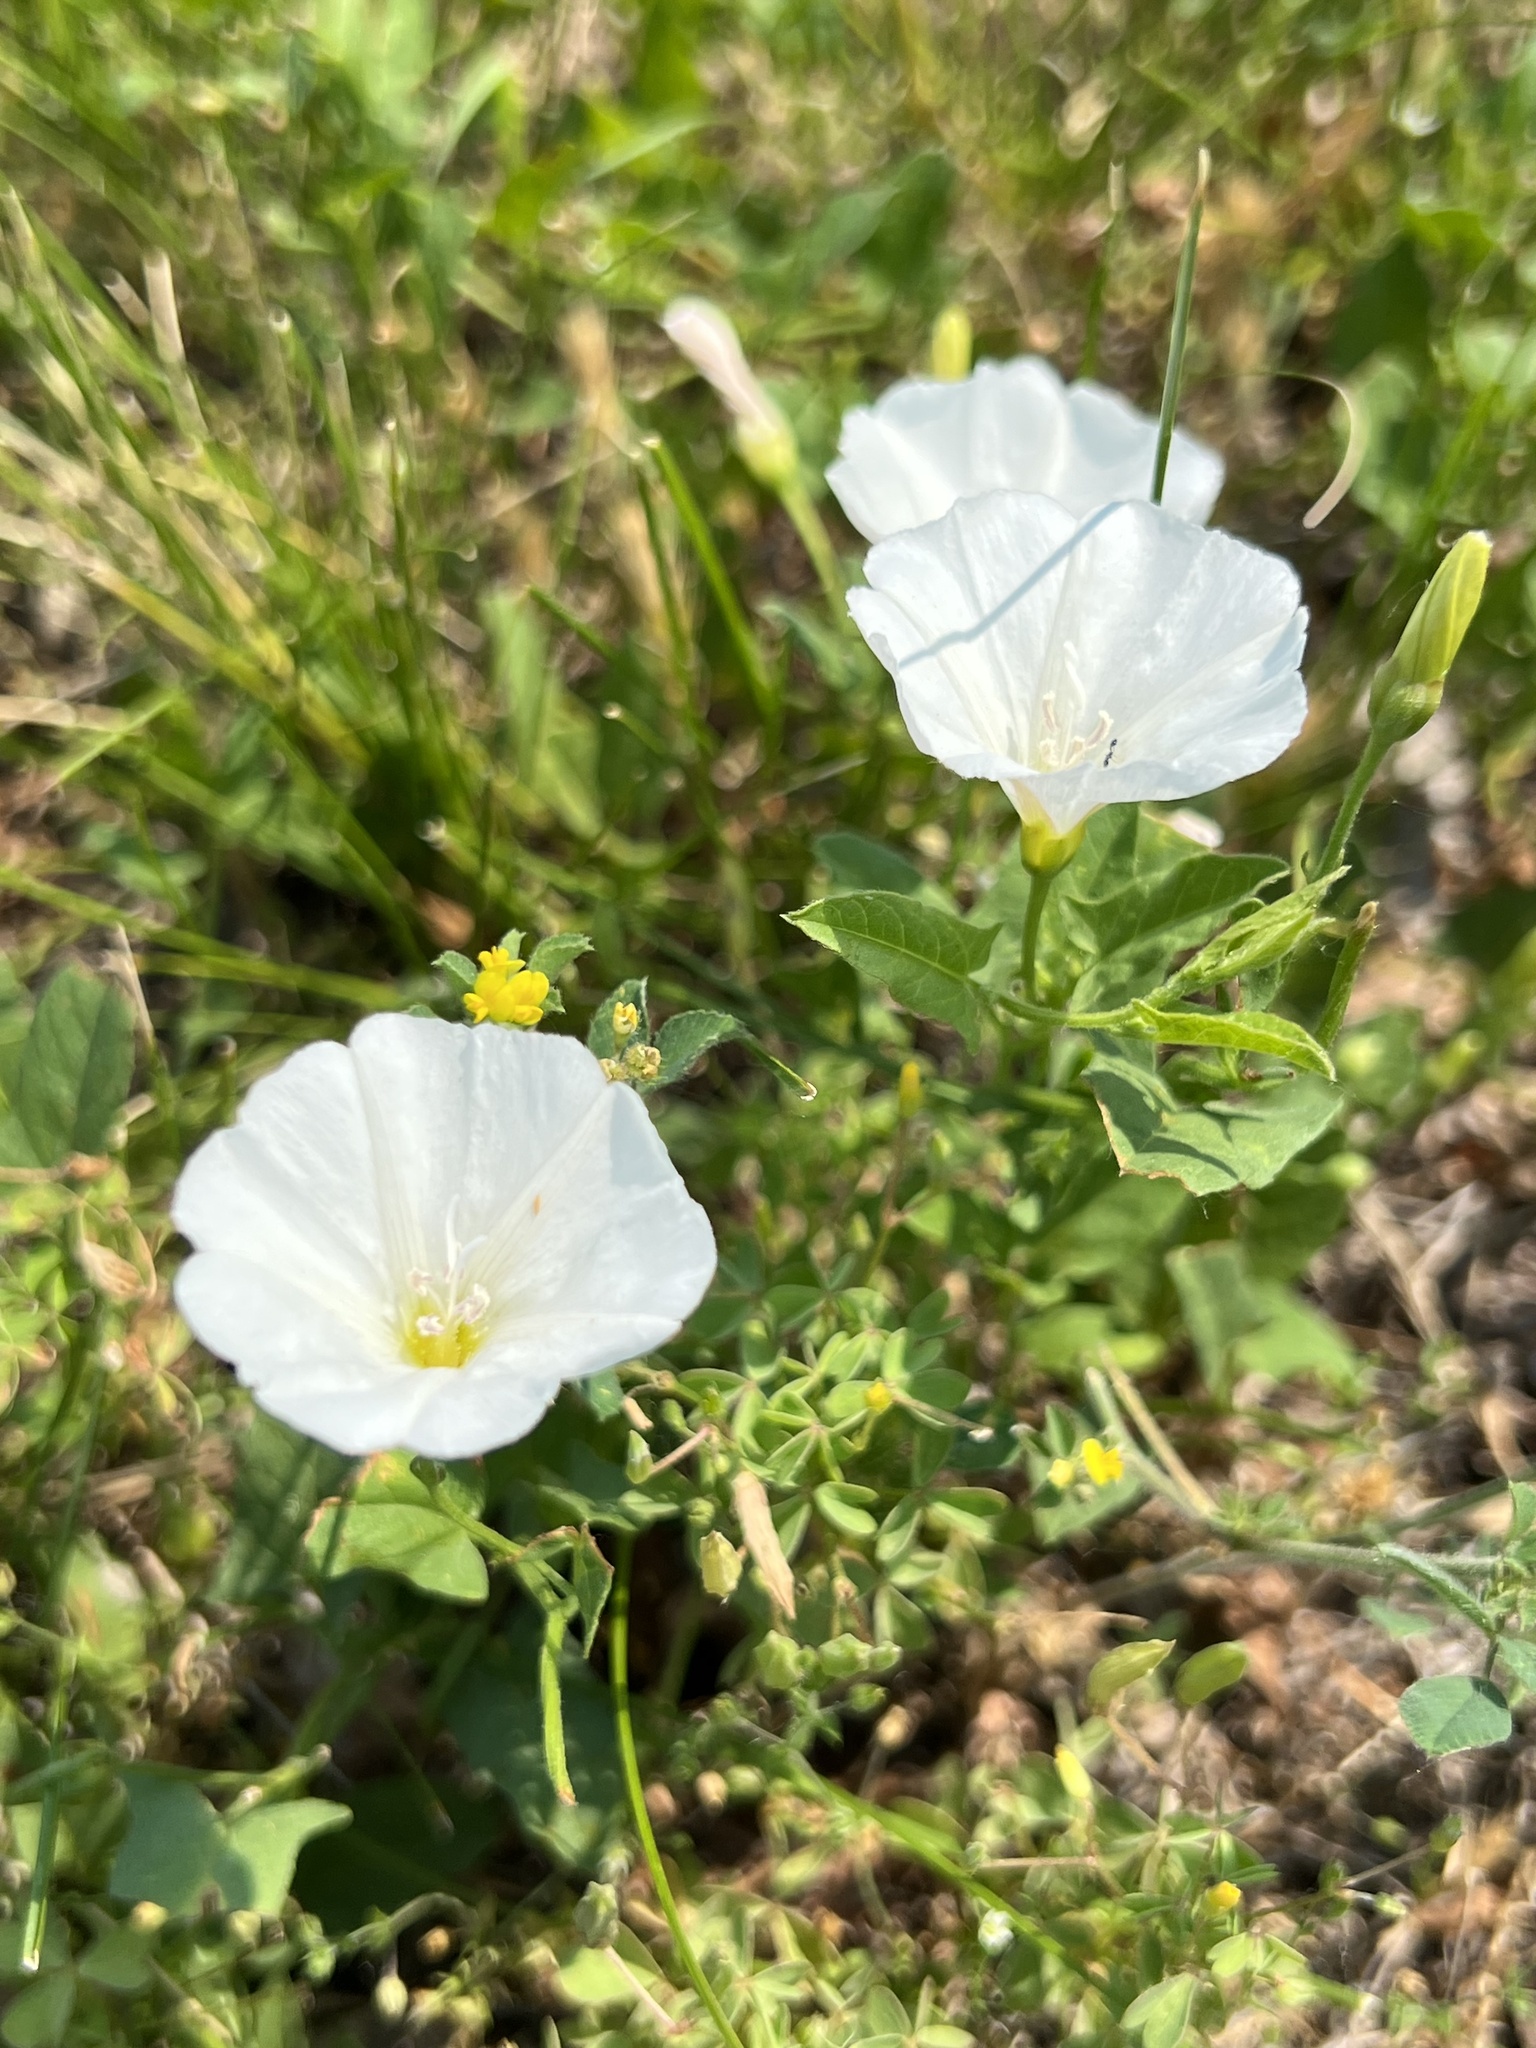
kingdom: Plantae
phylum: Tracheophyta
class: Magnoliopsida
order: Solanales
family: Convolvulaceae
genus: Convolvulus
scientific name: Convolvulus arvensis
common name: Field bindweed
